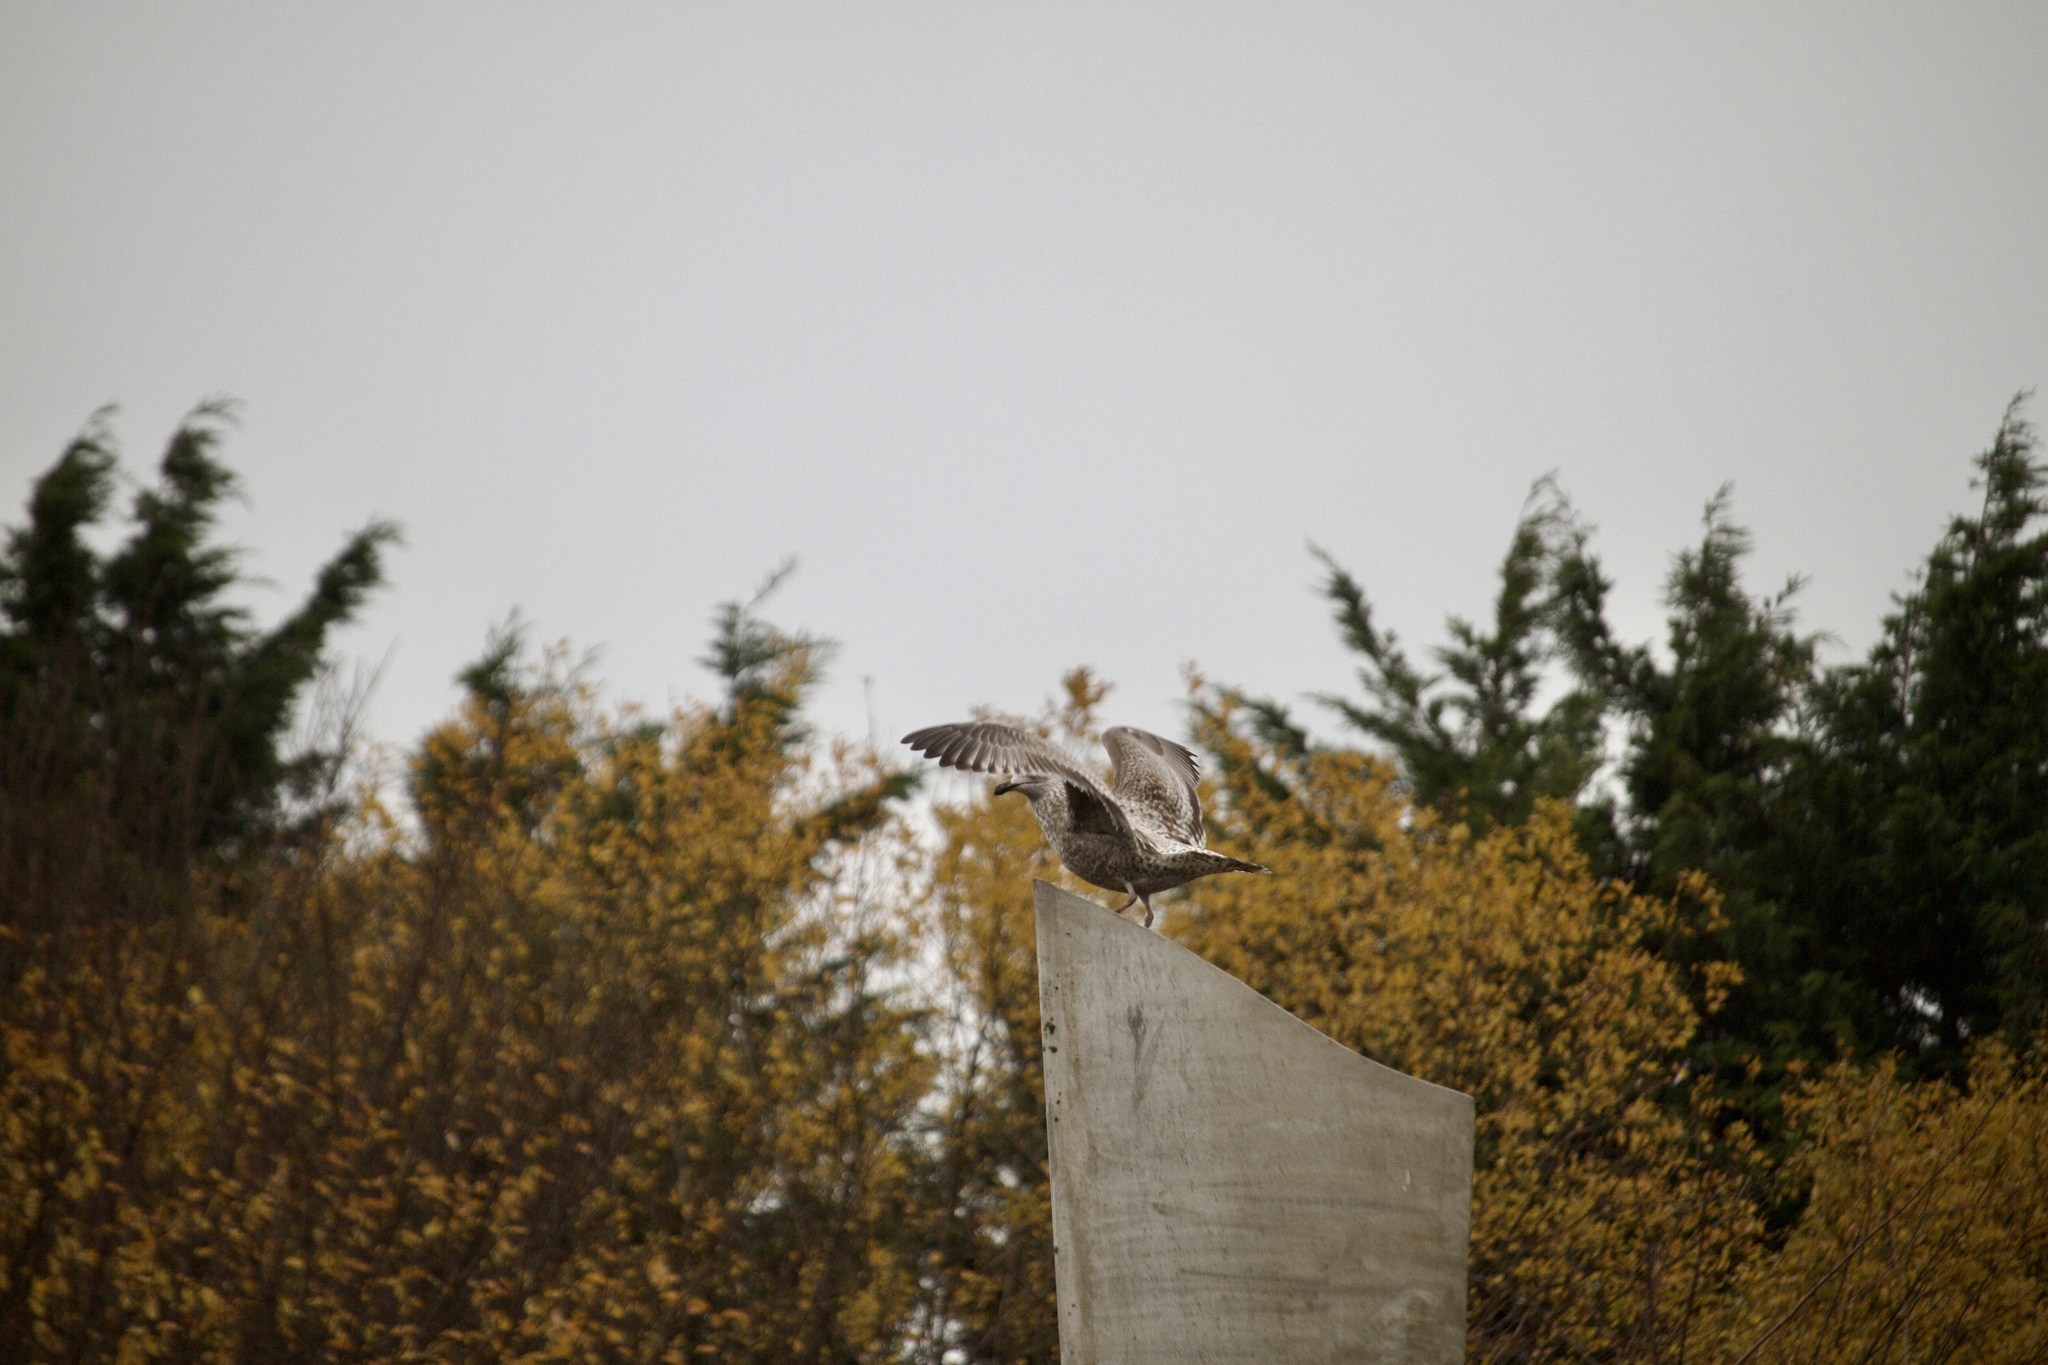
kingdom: Animalia
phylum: Chordata
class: Aves
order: Charadriiformes
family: Laridae
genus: Larus
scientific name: Larus argentatus
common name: Herring gull
